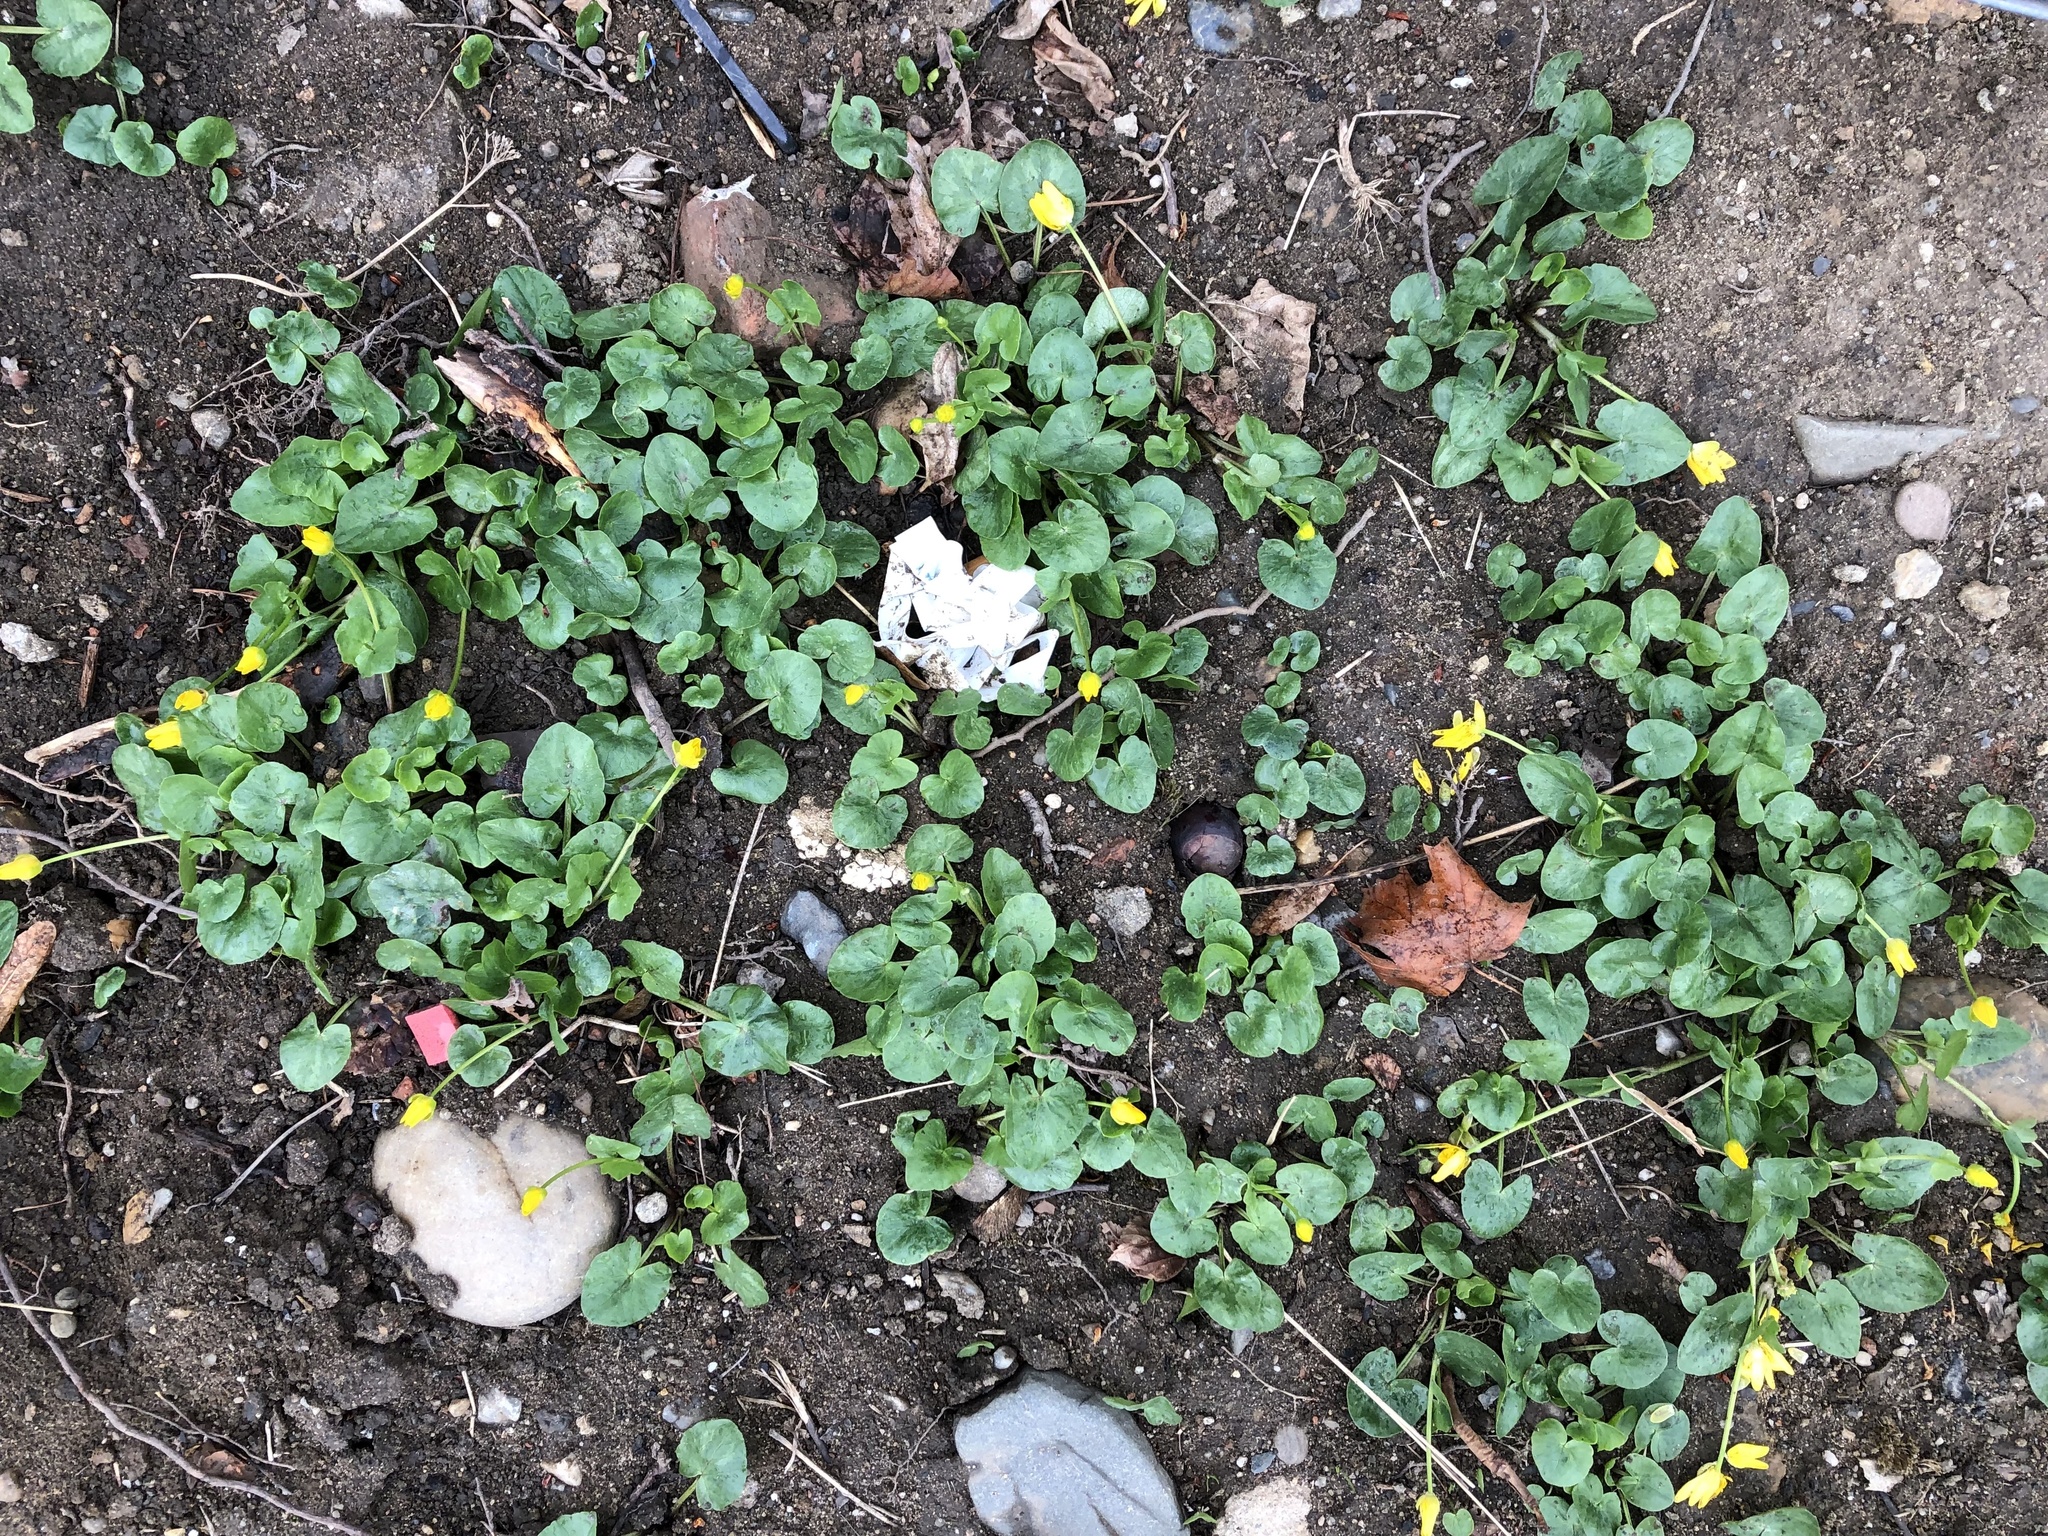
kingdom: Plantae
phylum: Tracheophyta
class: Magnoliopsida
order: Ranunculales
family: Ranunculaceae
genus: Ficaria
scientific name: Ficaria verna
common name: Lesser celandine
